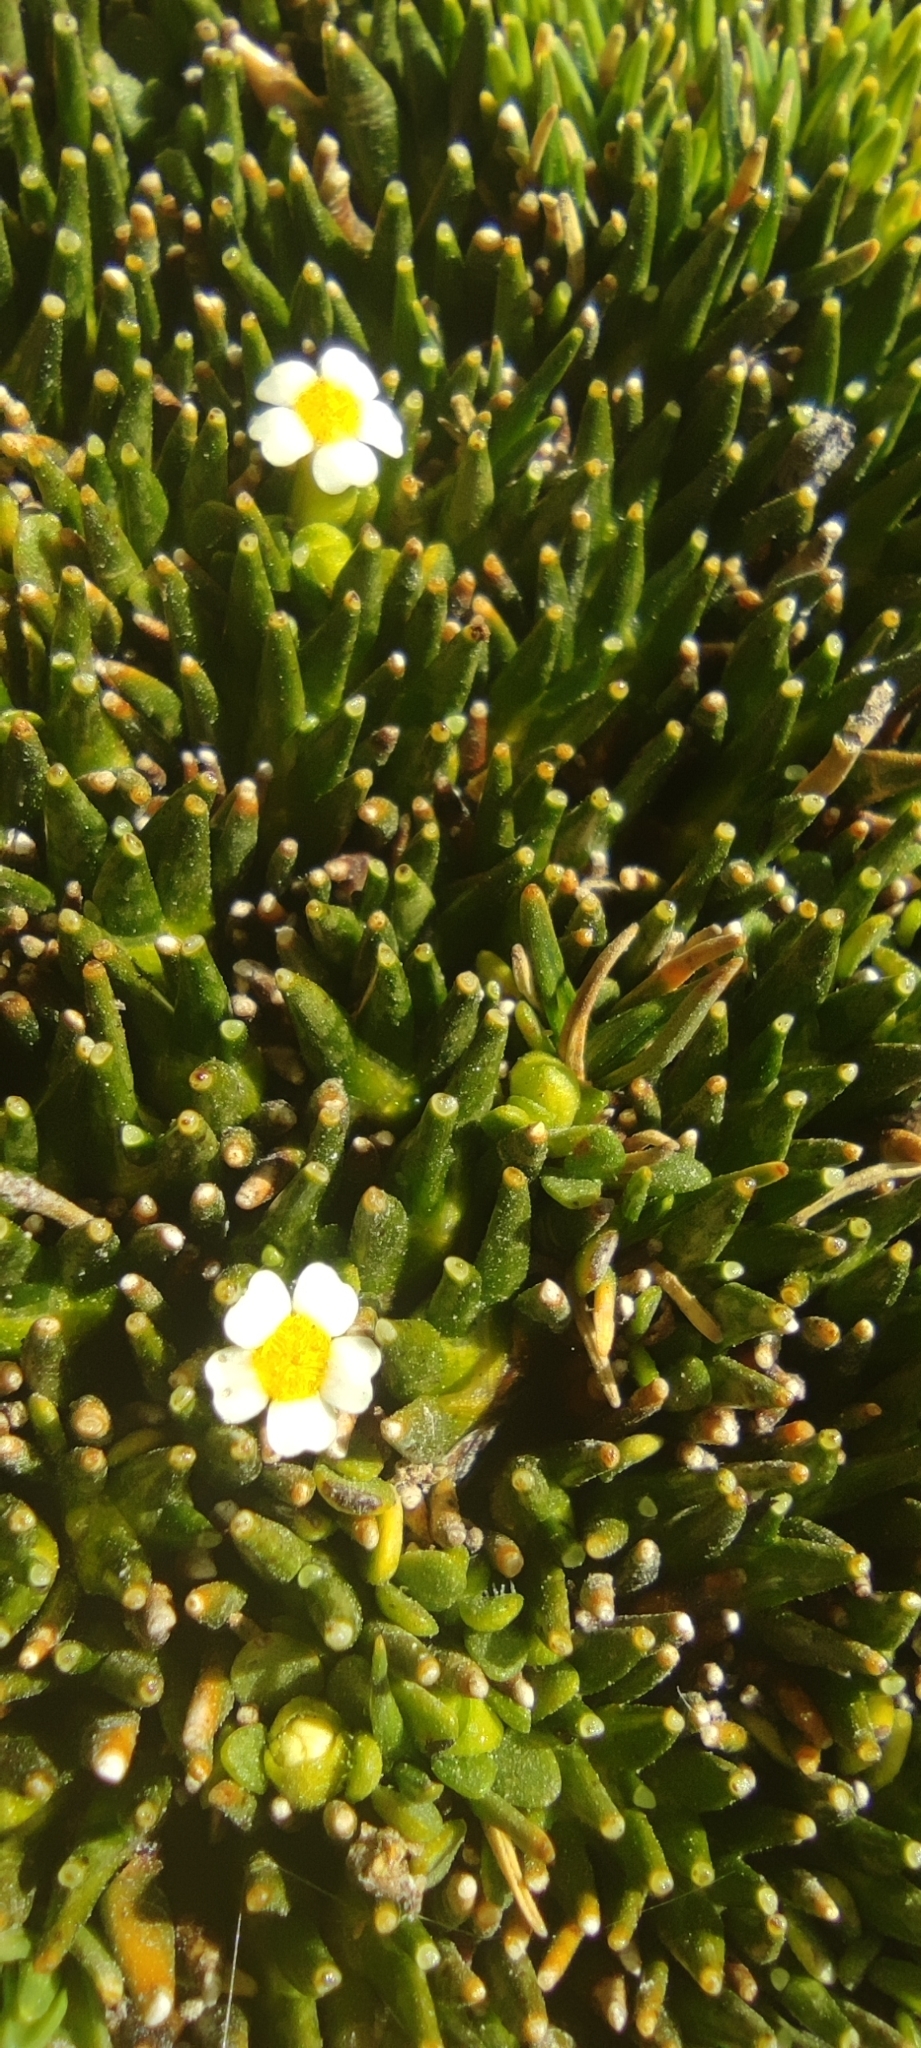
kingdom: Plantae
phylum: Tracheophyta
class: Magnoliopsida
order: Lamiales
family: Plantaginaceae
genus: Ourisia
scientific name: Ourisia muscosa
